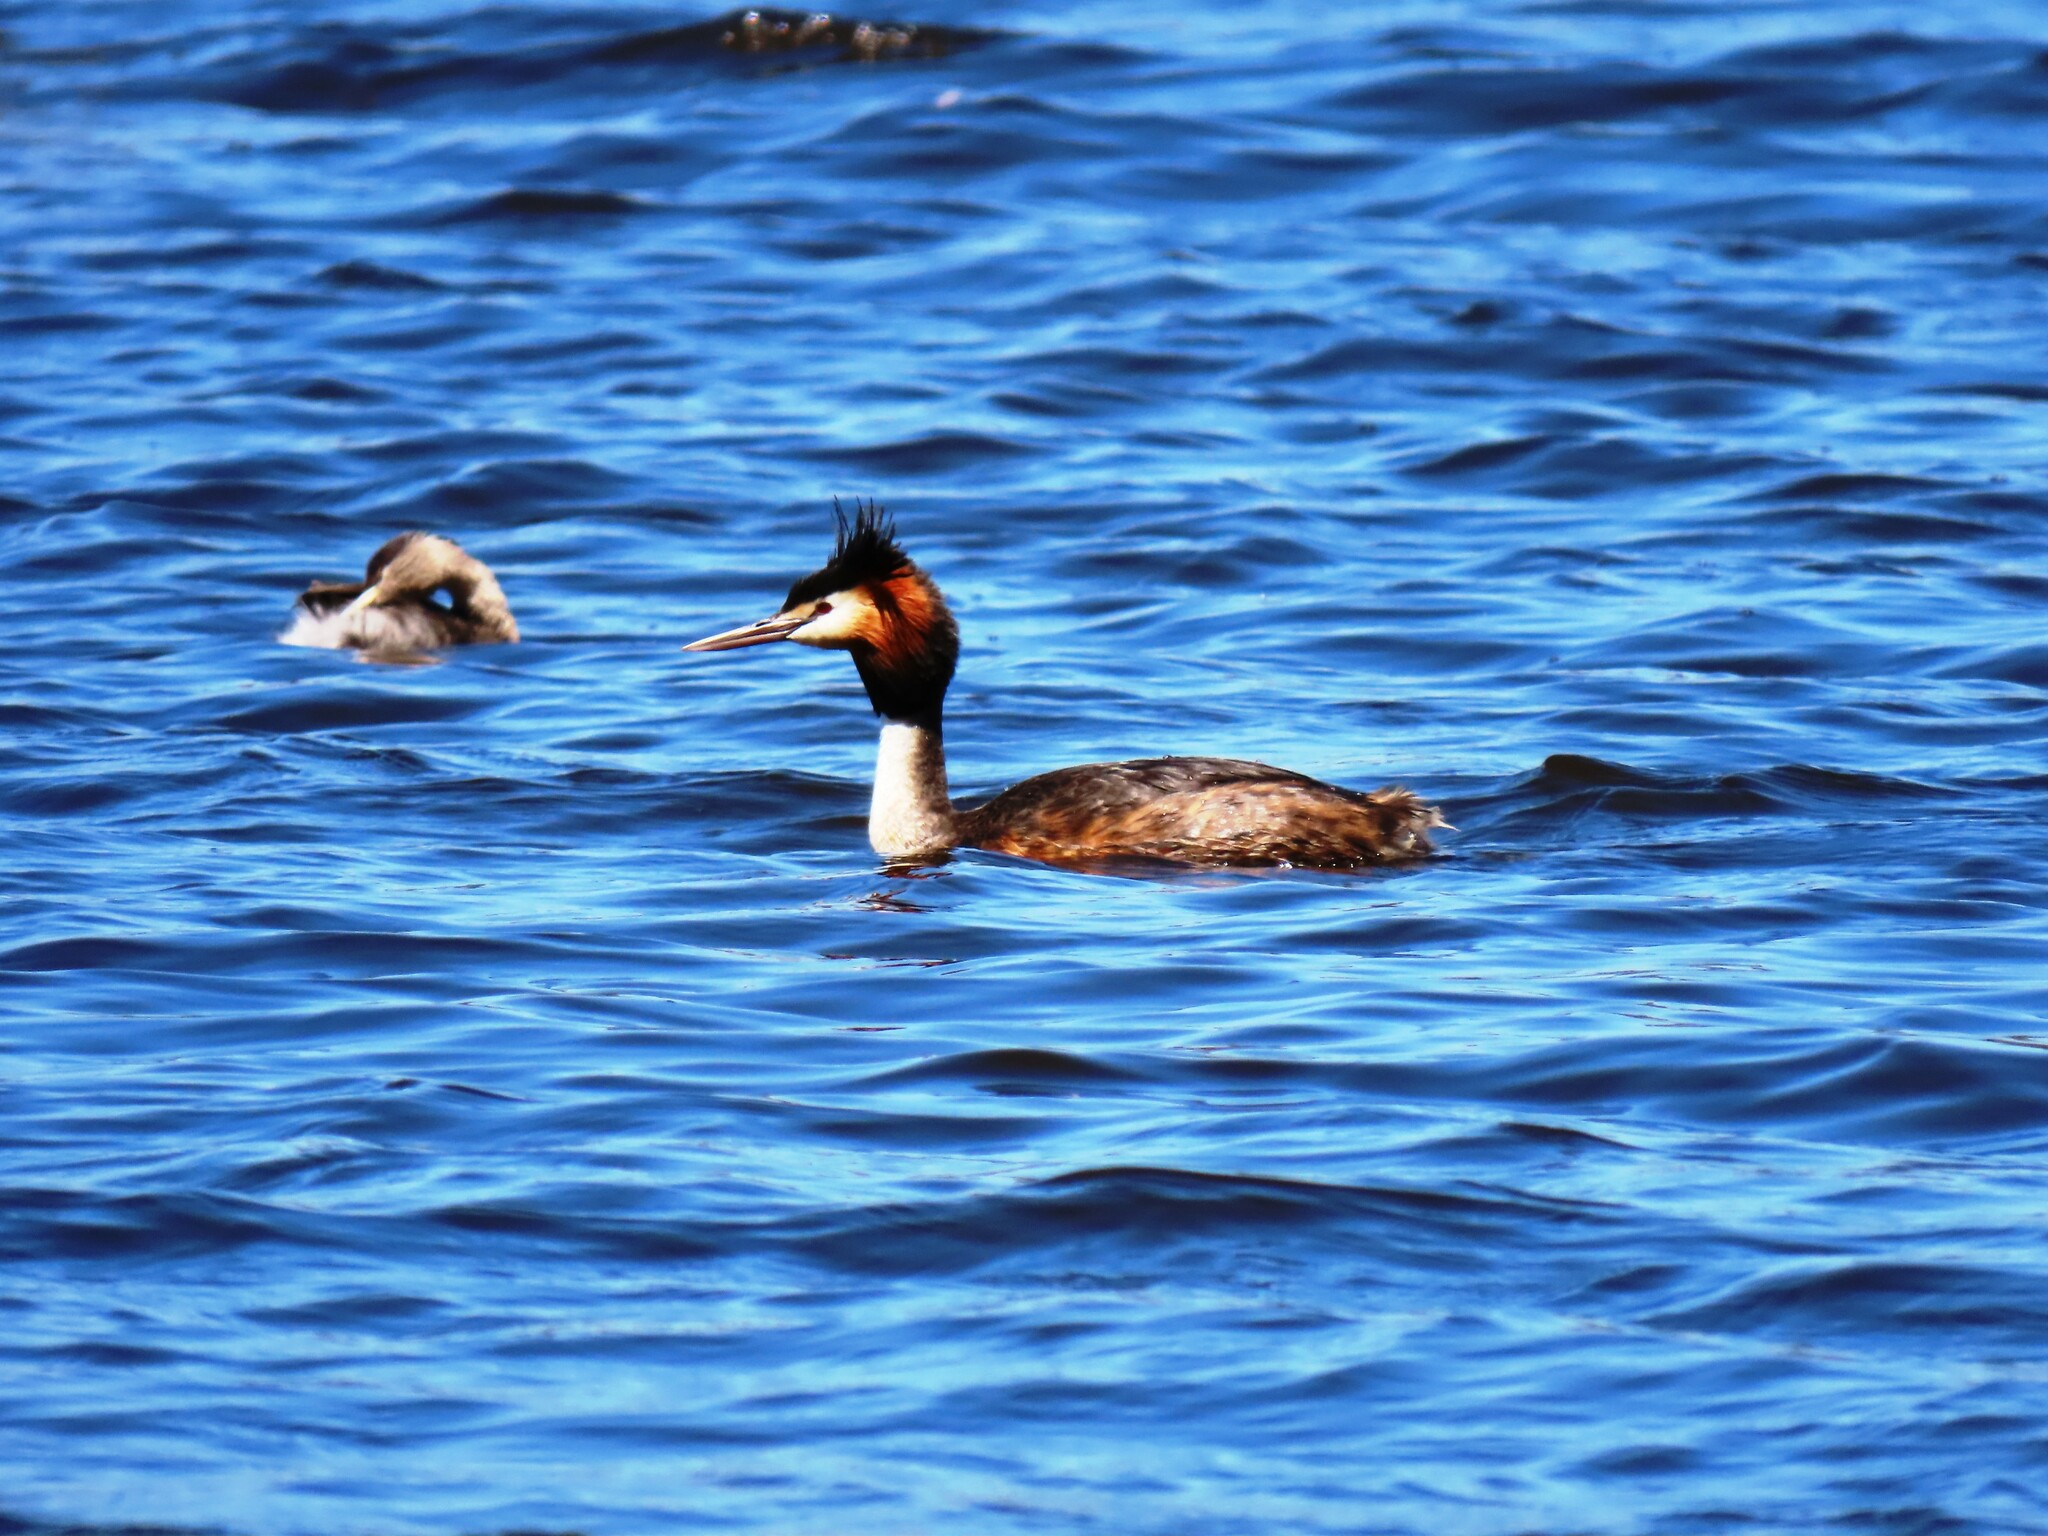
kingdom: Animalia
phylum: Chordata
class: Aves
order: Podicipediformes
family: Podicipedidae
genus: Podiceps
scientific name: Podiceps cristatus
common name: Great crested grebe
